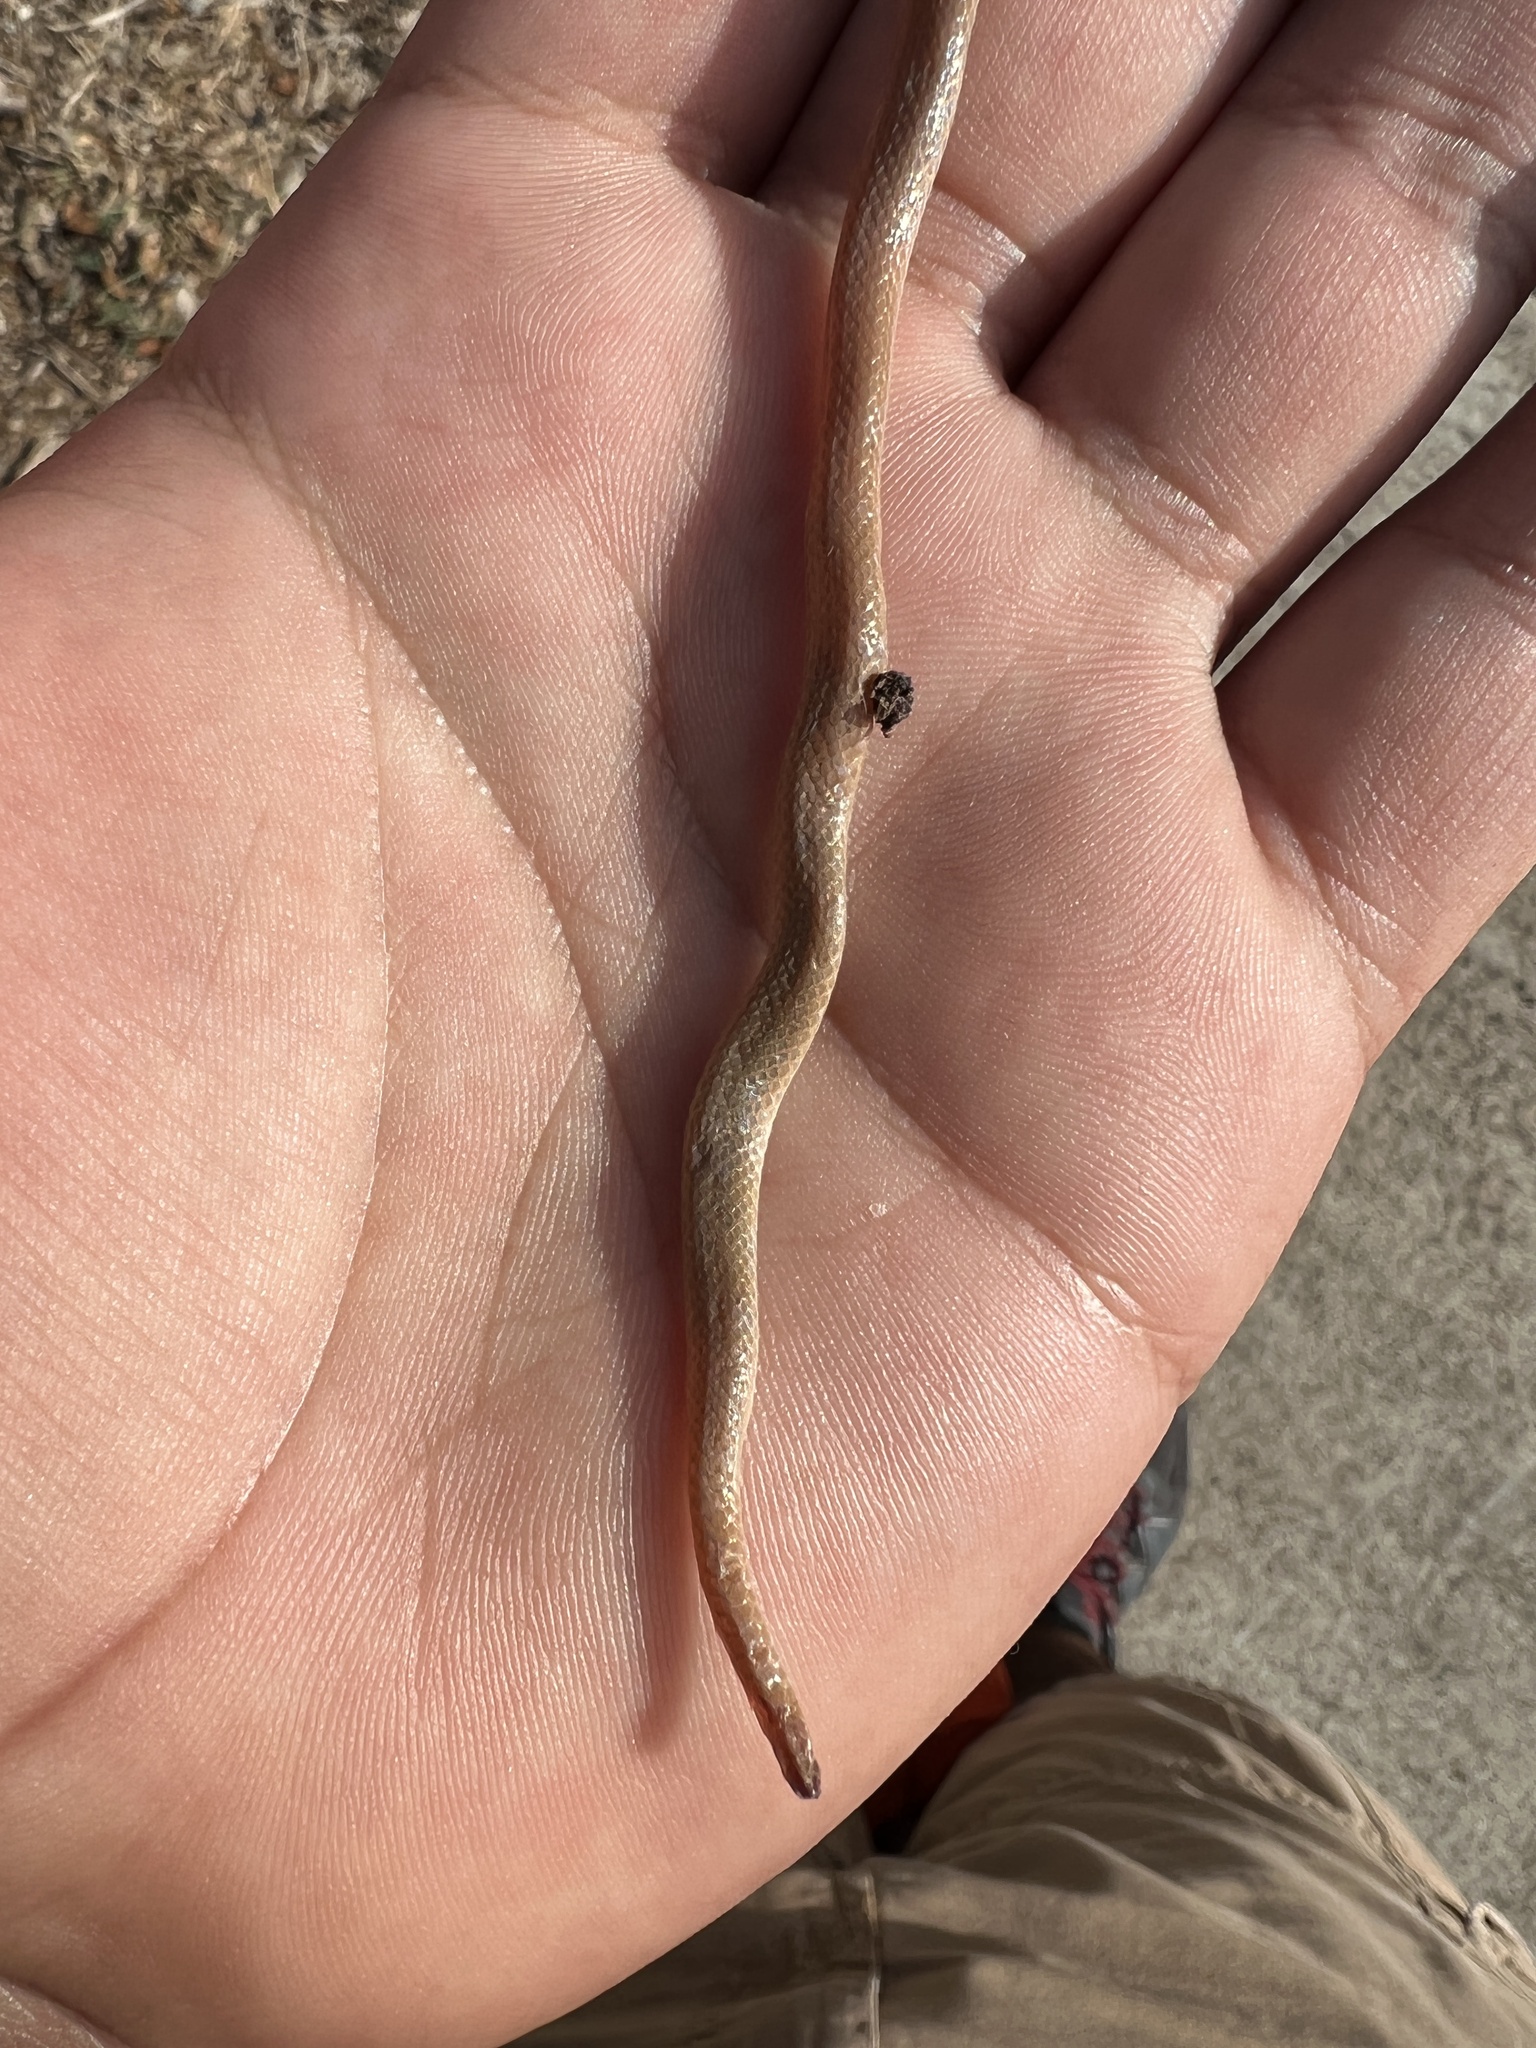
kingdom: Animalia
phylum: Chordata
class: Squamata
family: Colubridae
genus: Tantilla
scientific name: Tantilla gracilis
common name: Flathead snake
